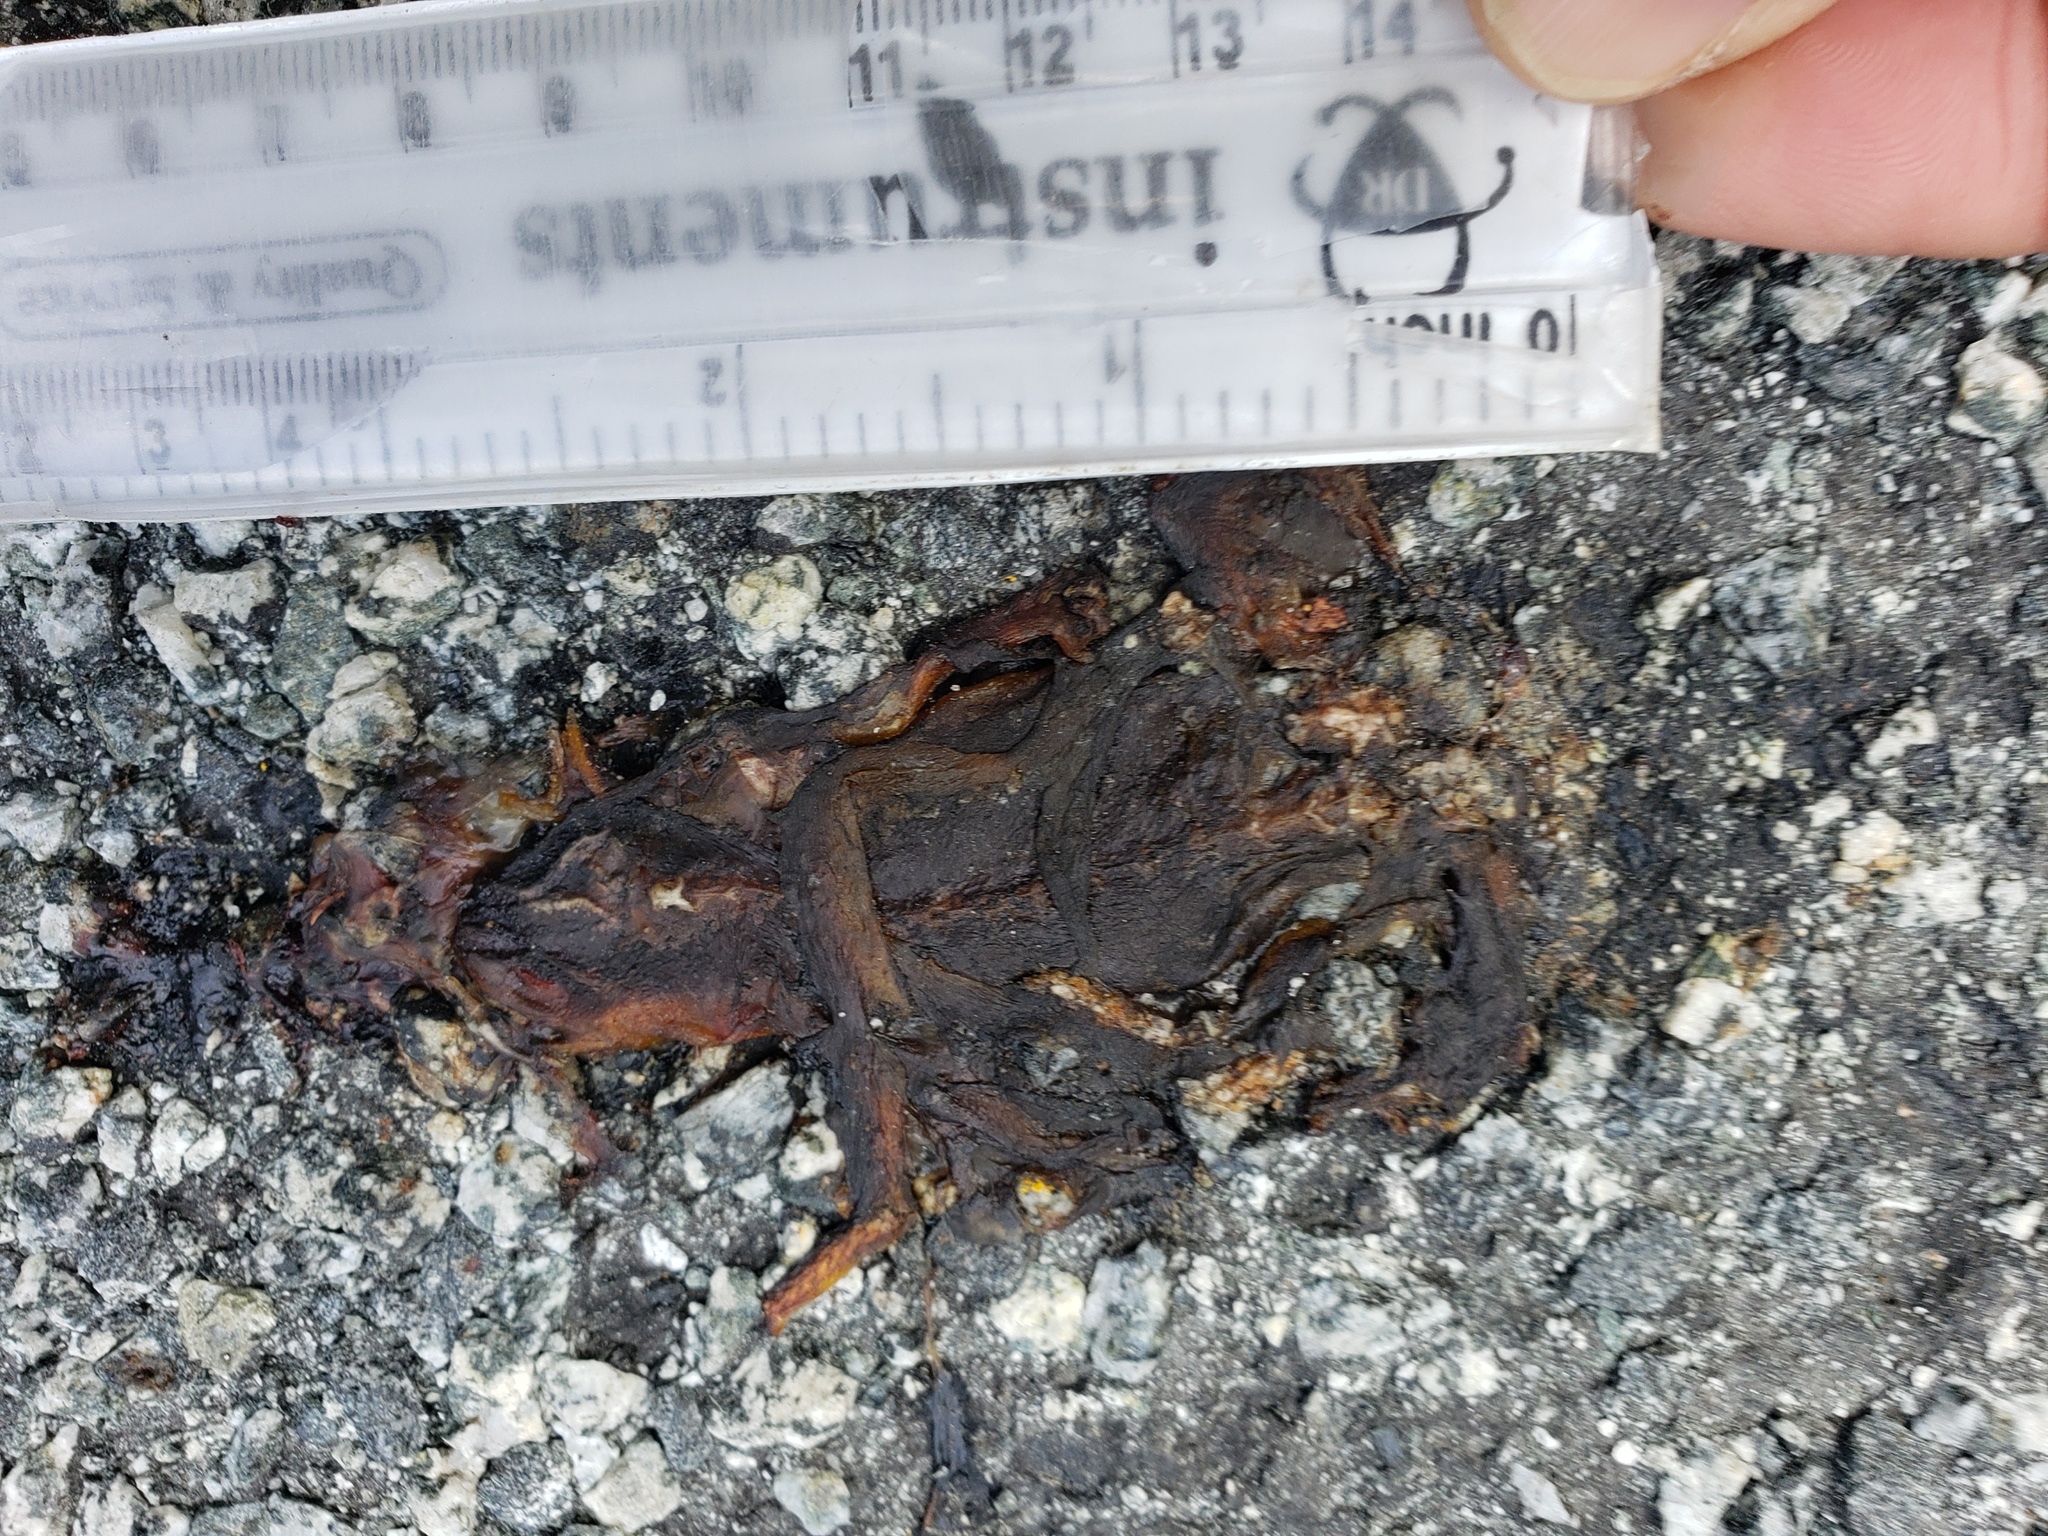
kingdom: Animalia
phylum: Chordata
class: Amphibia
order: Caudata
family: Salamandridae
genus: Taricha
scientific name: Taricha
